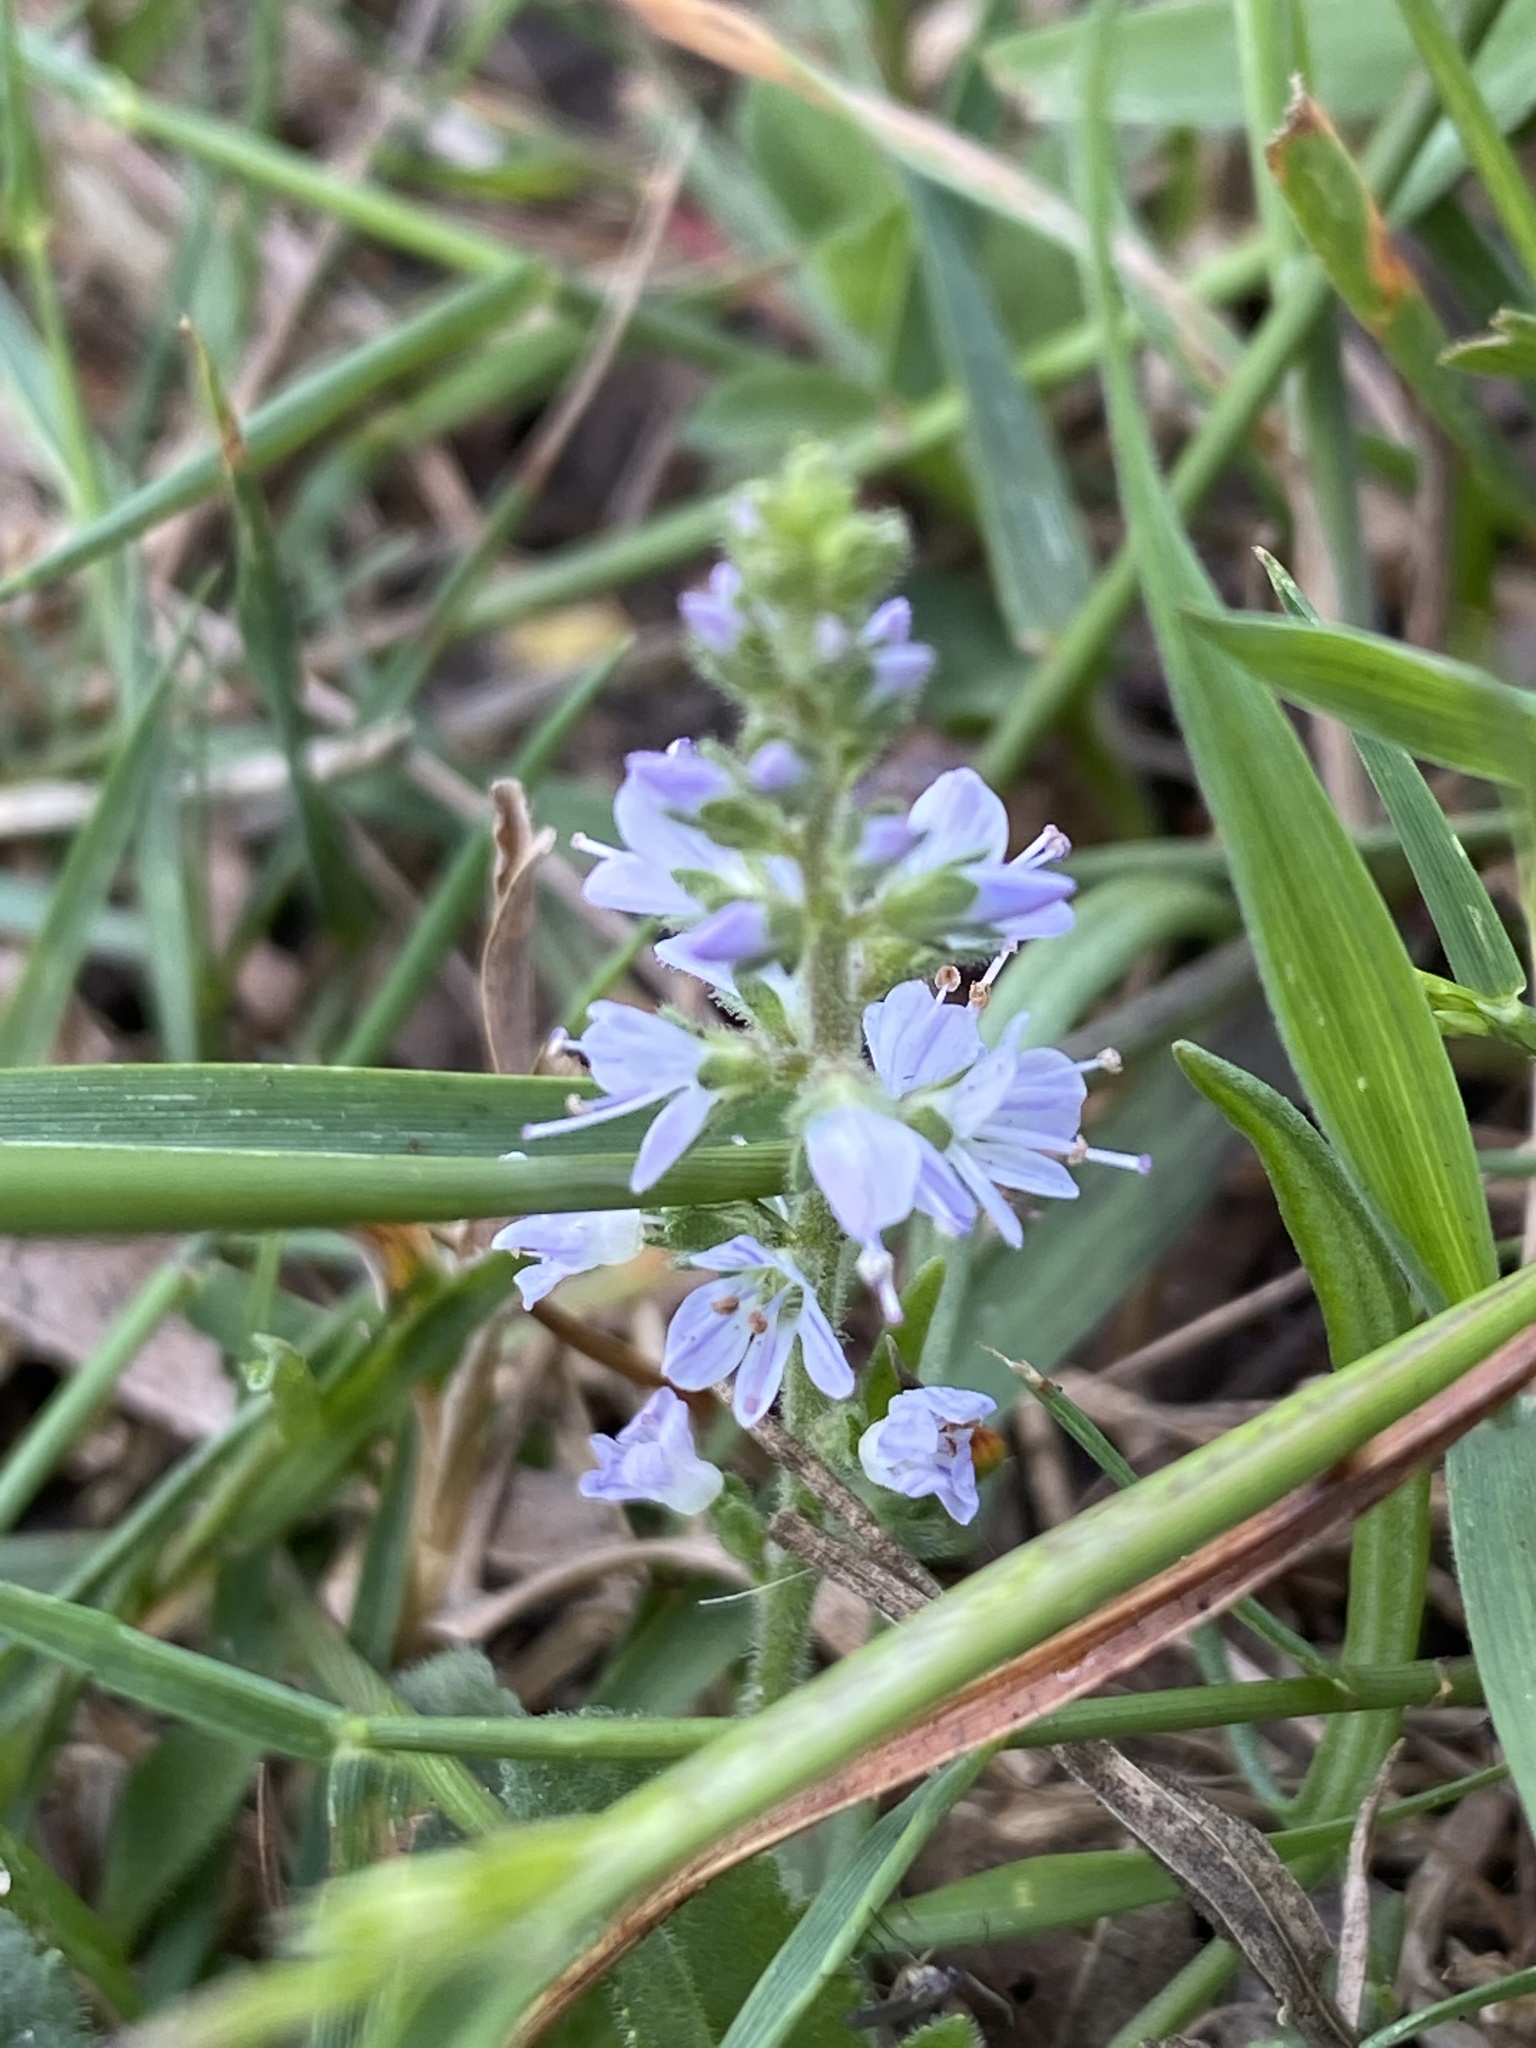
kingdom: Plantae
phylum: Tracheophyta
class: Magnoliopsida
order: Lamiales
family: Plantaginaceae
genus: Veronica
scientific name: Veronica officinalis
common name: Common speedwell
